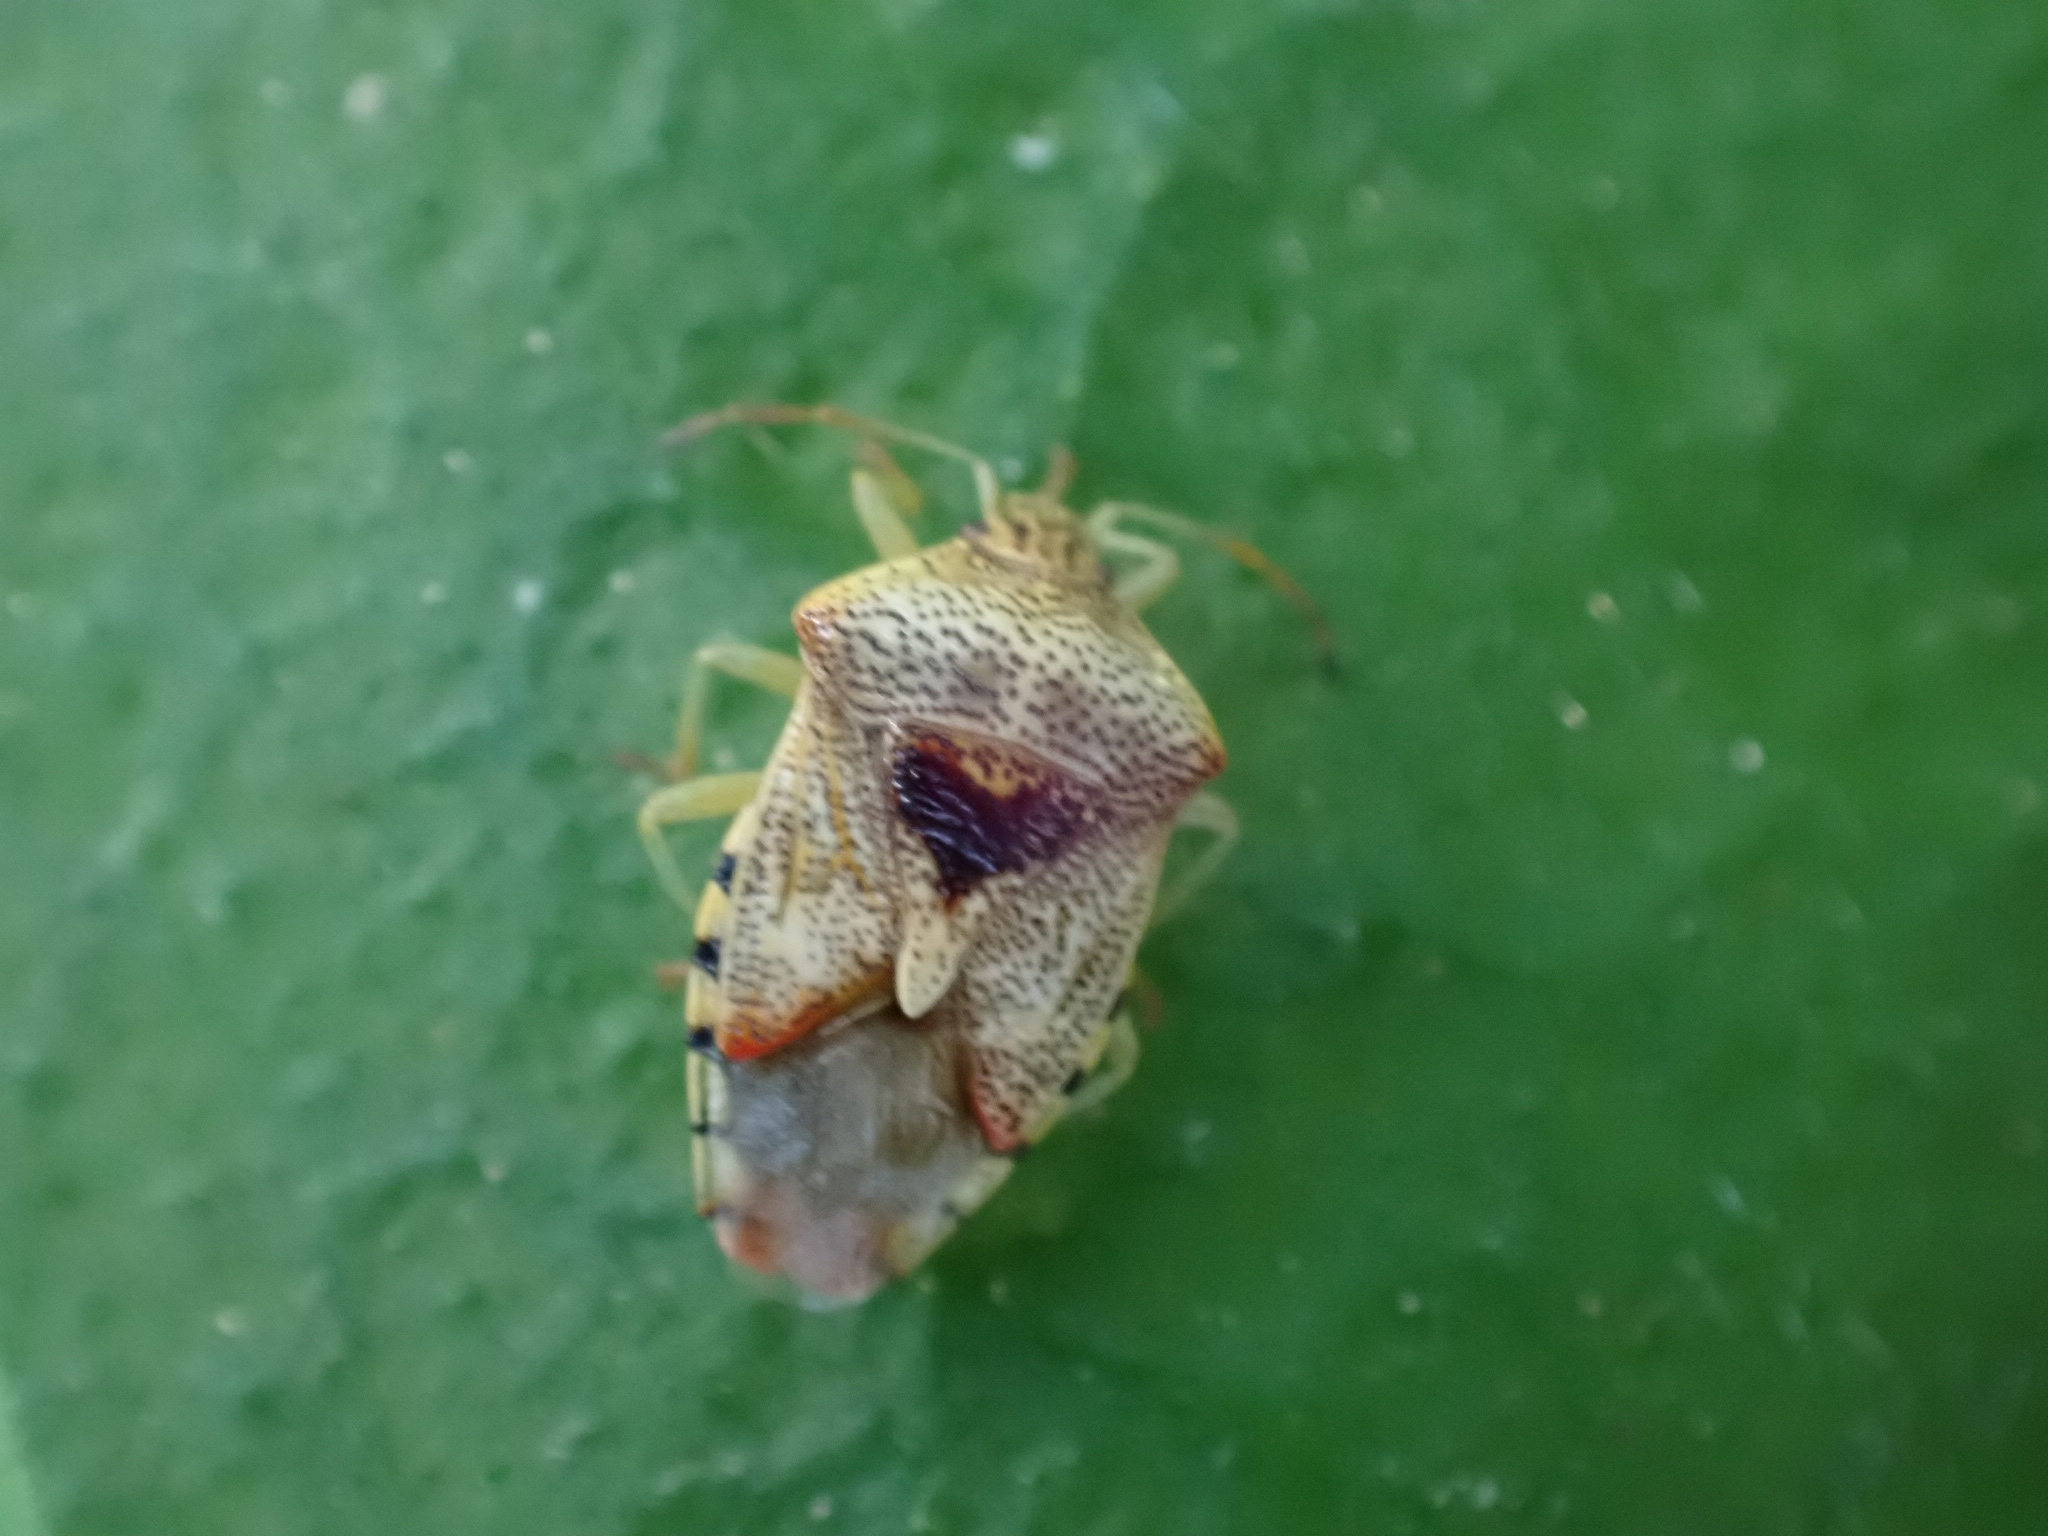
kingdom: Animalia
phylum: Arthropoda
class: Insecta
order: Hemiptera
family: Acanthosomatidae
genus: Elasmucha
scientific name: Elasmucha grisea
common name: Parent bug
